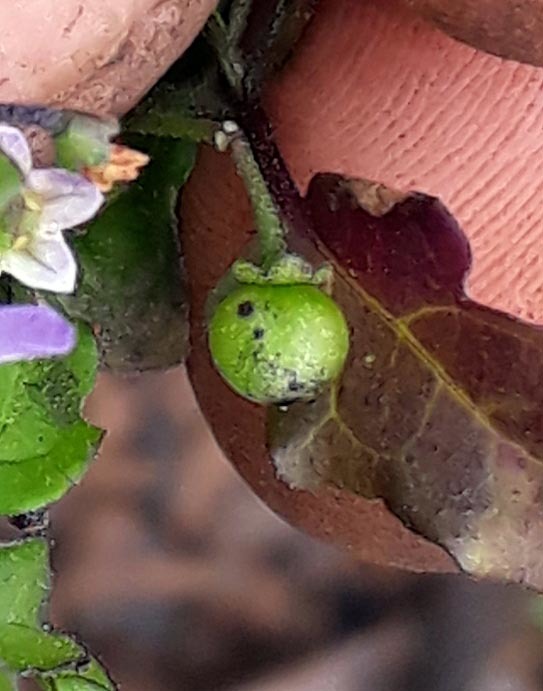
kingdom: Plantae
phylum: Tracheophyta
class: Magnoliopsida
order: Solanales
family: Solanaceae
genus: Solanum
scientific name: Solanum opacum
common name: Green-berry nightshade
